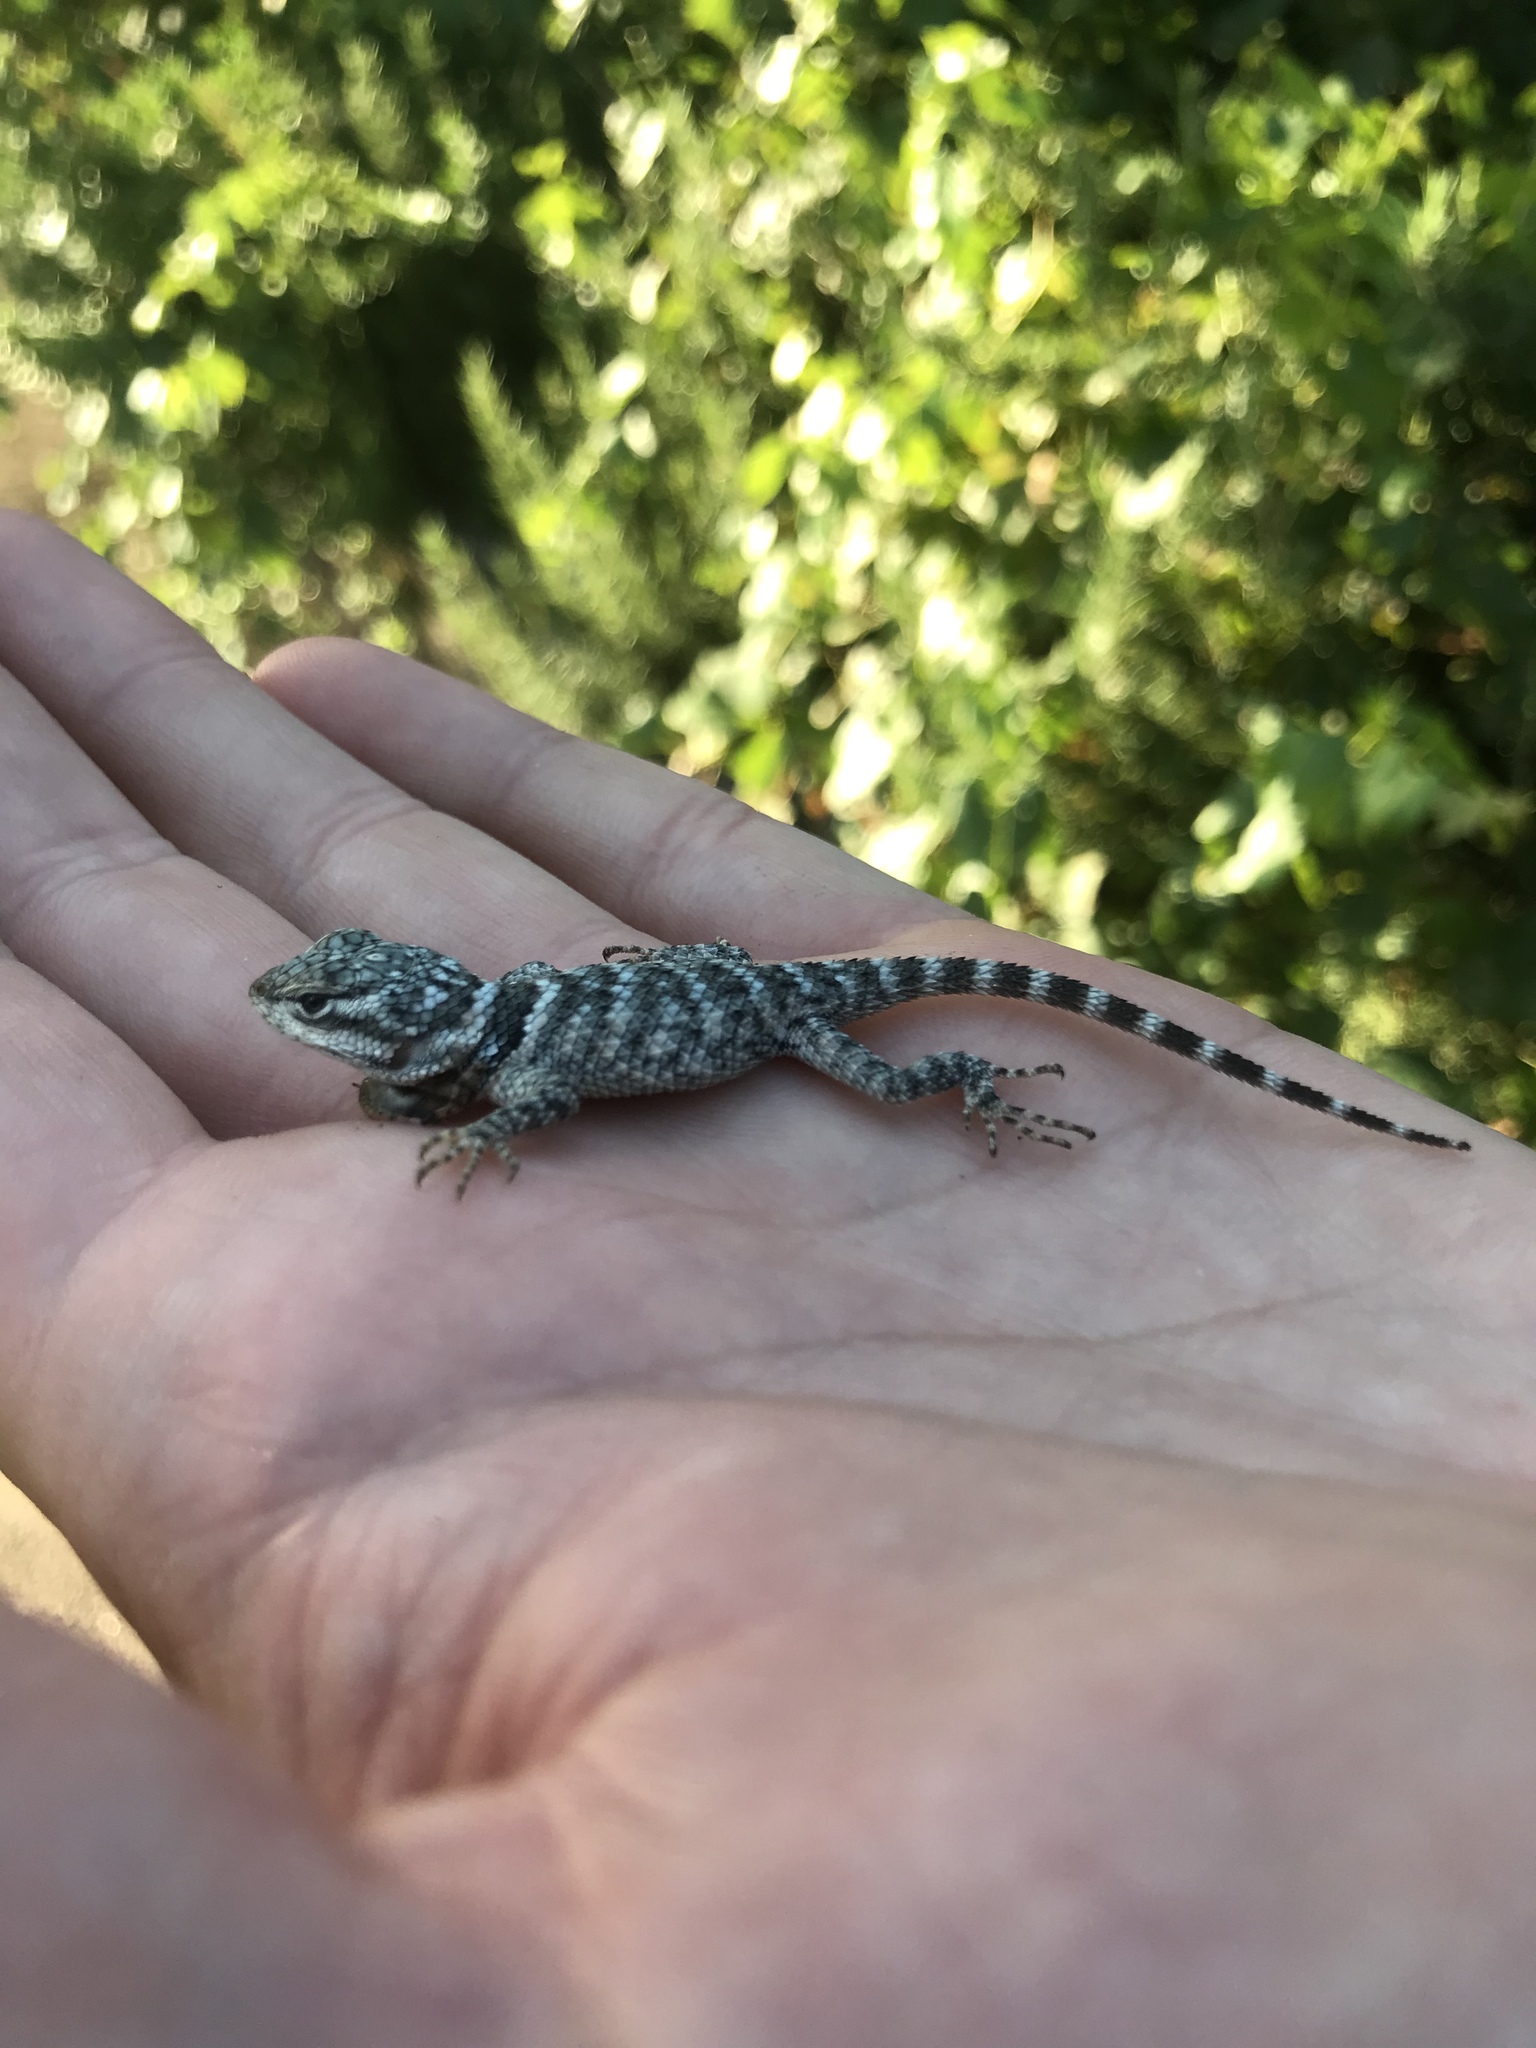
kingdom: Animalia
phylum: Chordata
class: Squamata
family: Phrynosomatidae
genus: Sceloporus
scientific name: Sceloporus poinsettii
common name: Crevice spiny lizard
